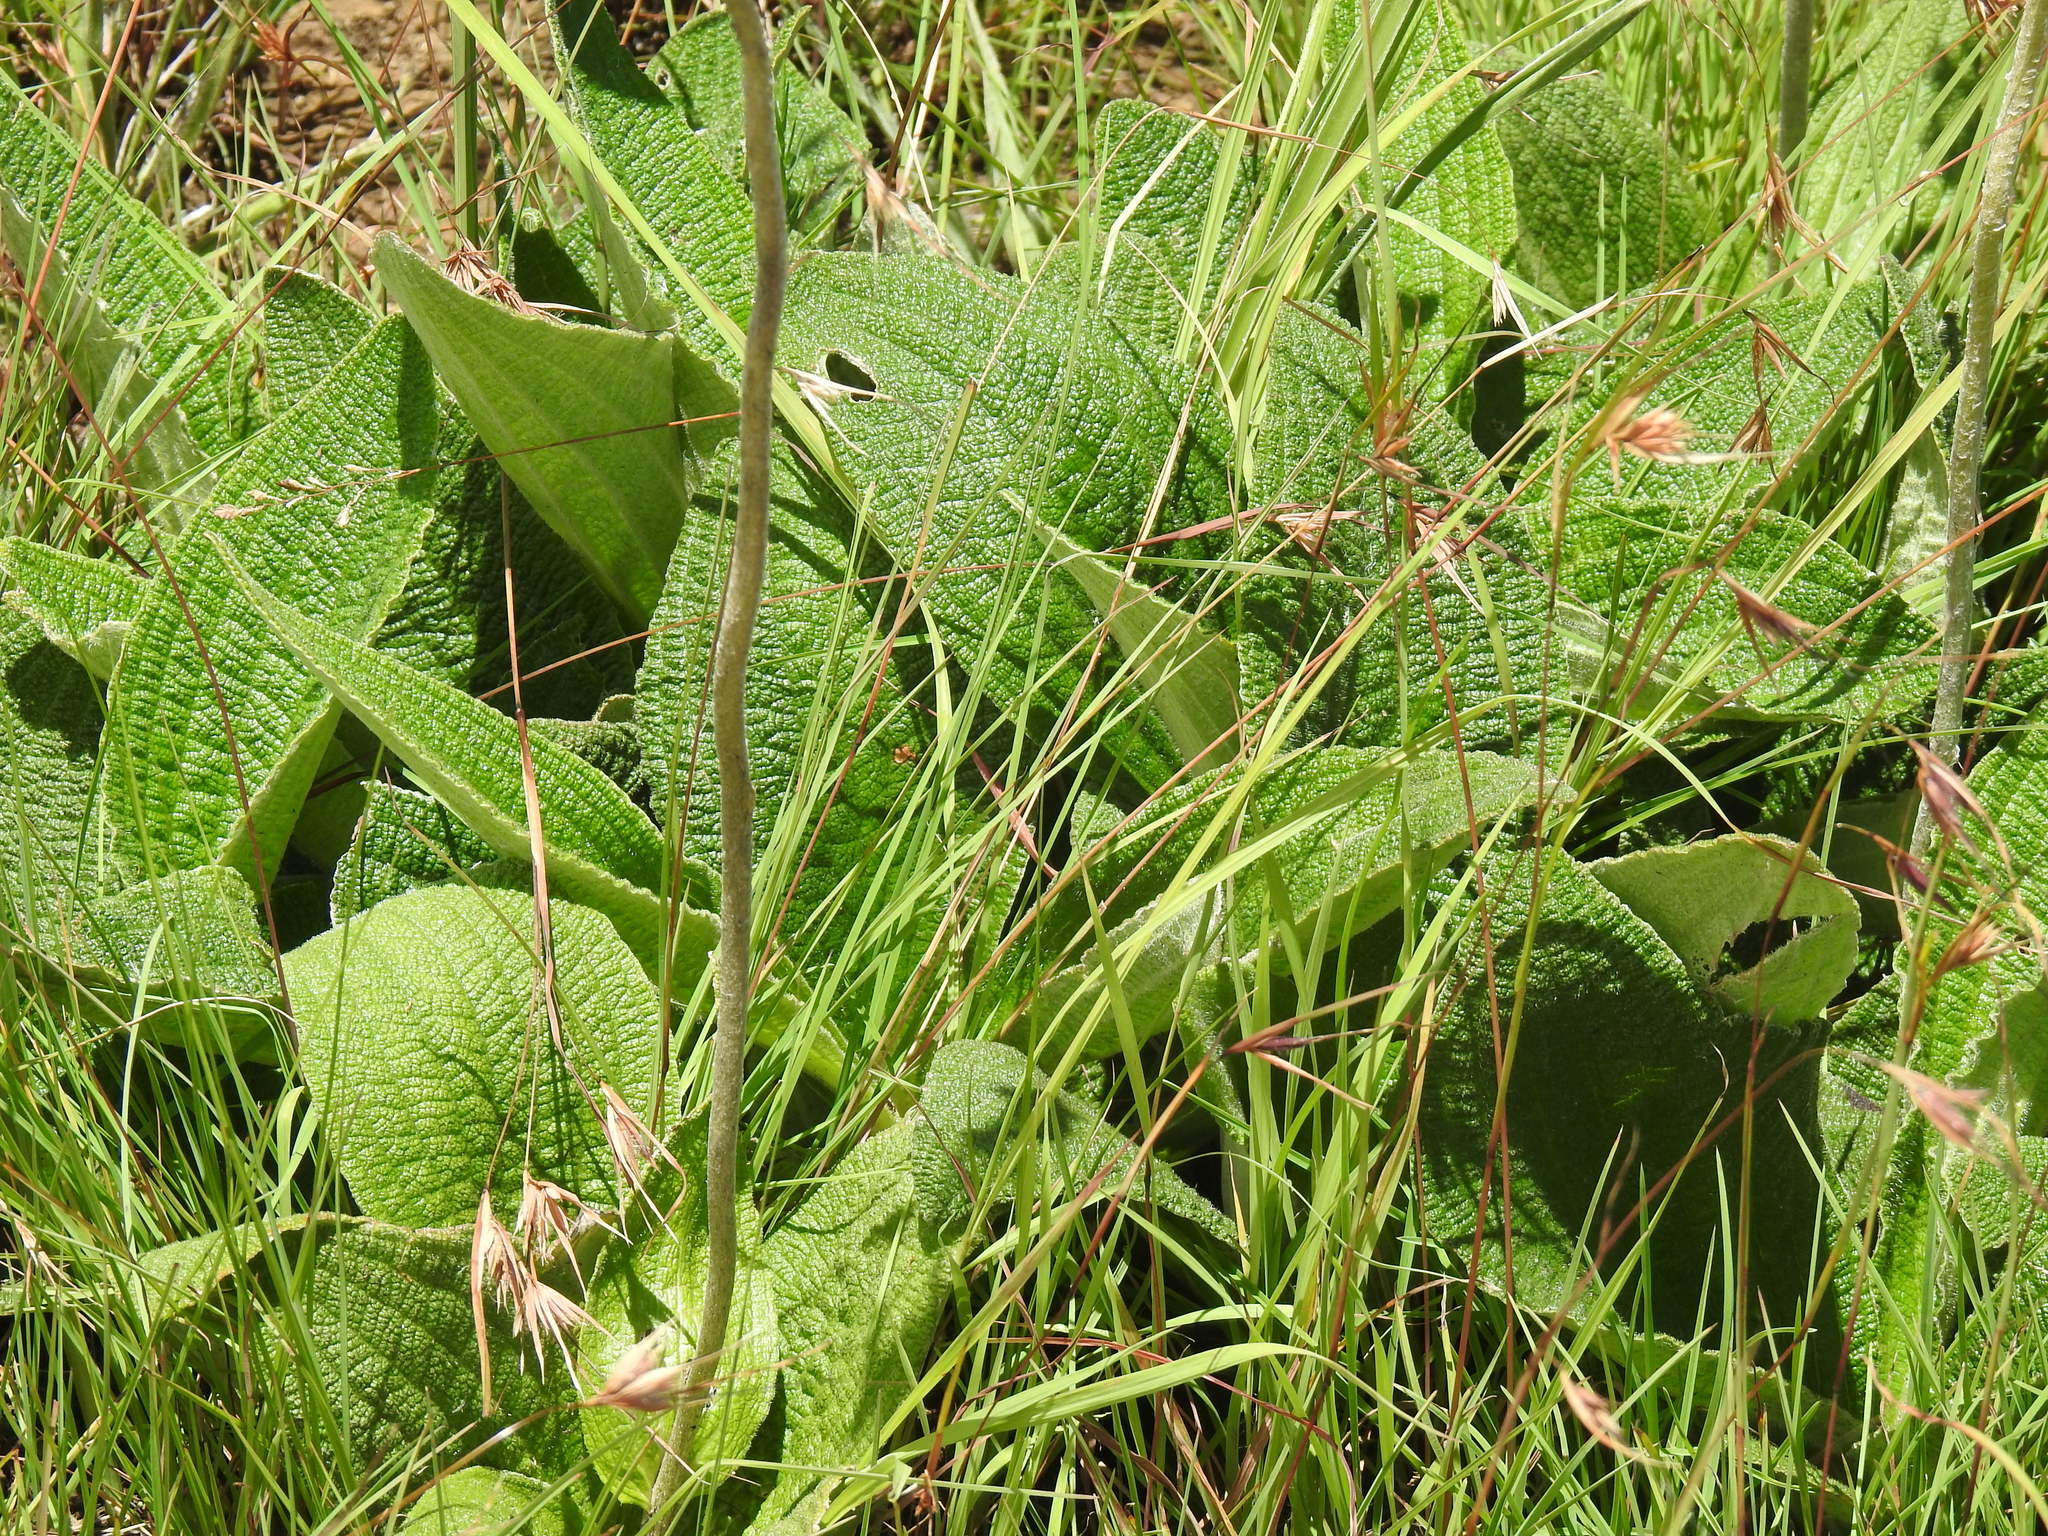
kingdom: Plantae
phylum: Tracheophyta
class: Magnoliopsida
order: Asterales
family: Asteraceae
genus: Helichrysum
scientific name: Helichrysum nudifolium
